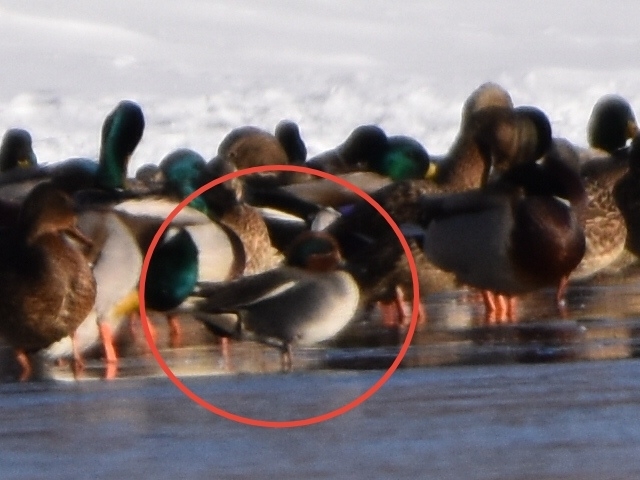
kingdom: Animalia
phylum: Chordata
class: Aves
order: Anseriformes
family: Anatidae
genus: Anas
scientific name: Anas crecca
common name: Eurasian teal
